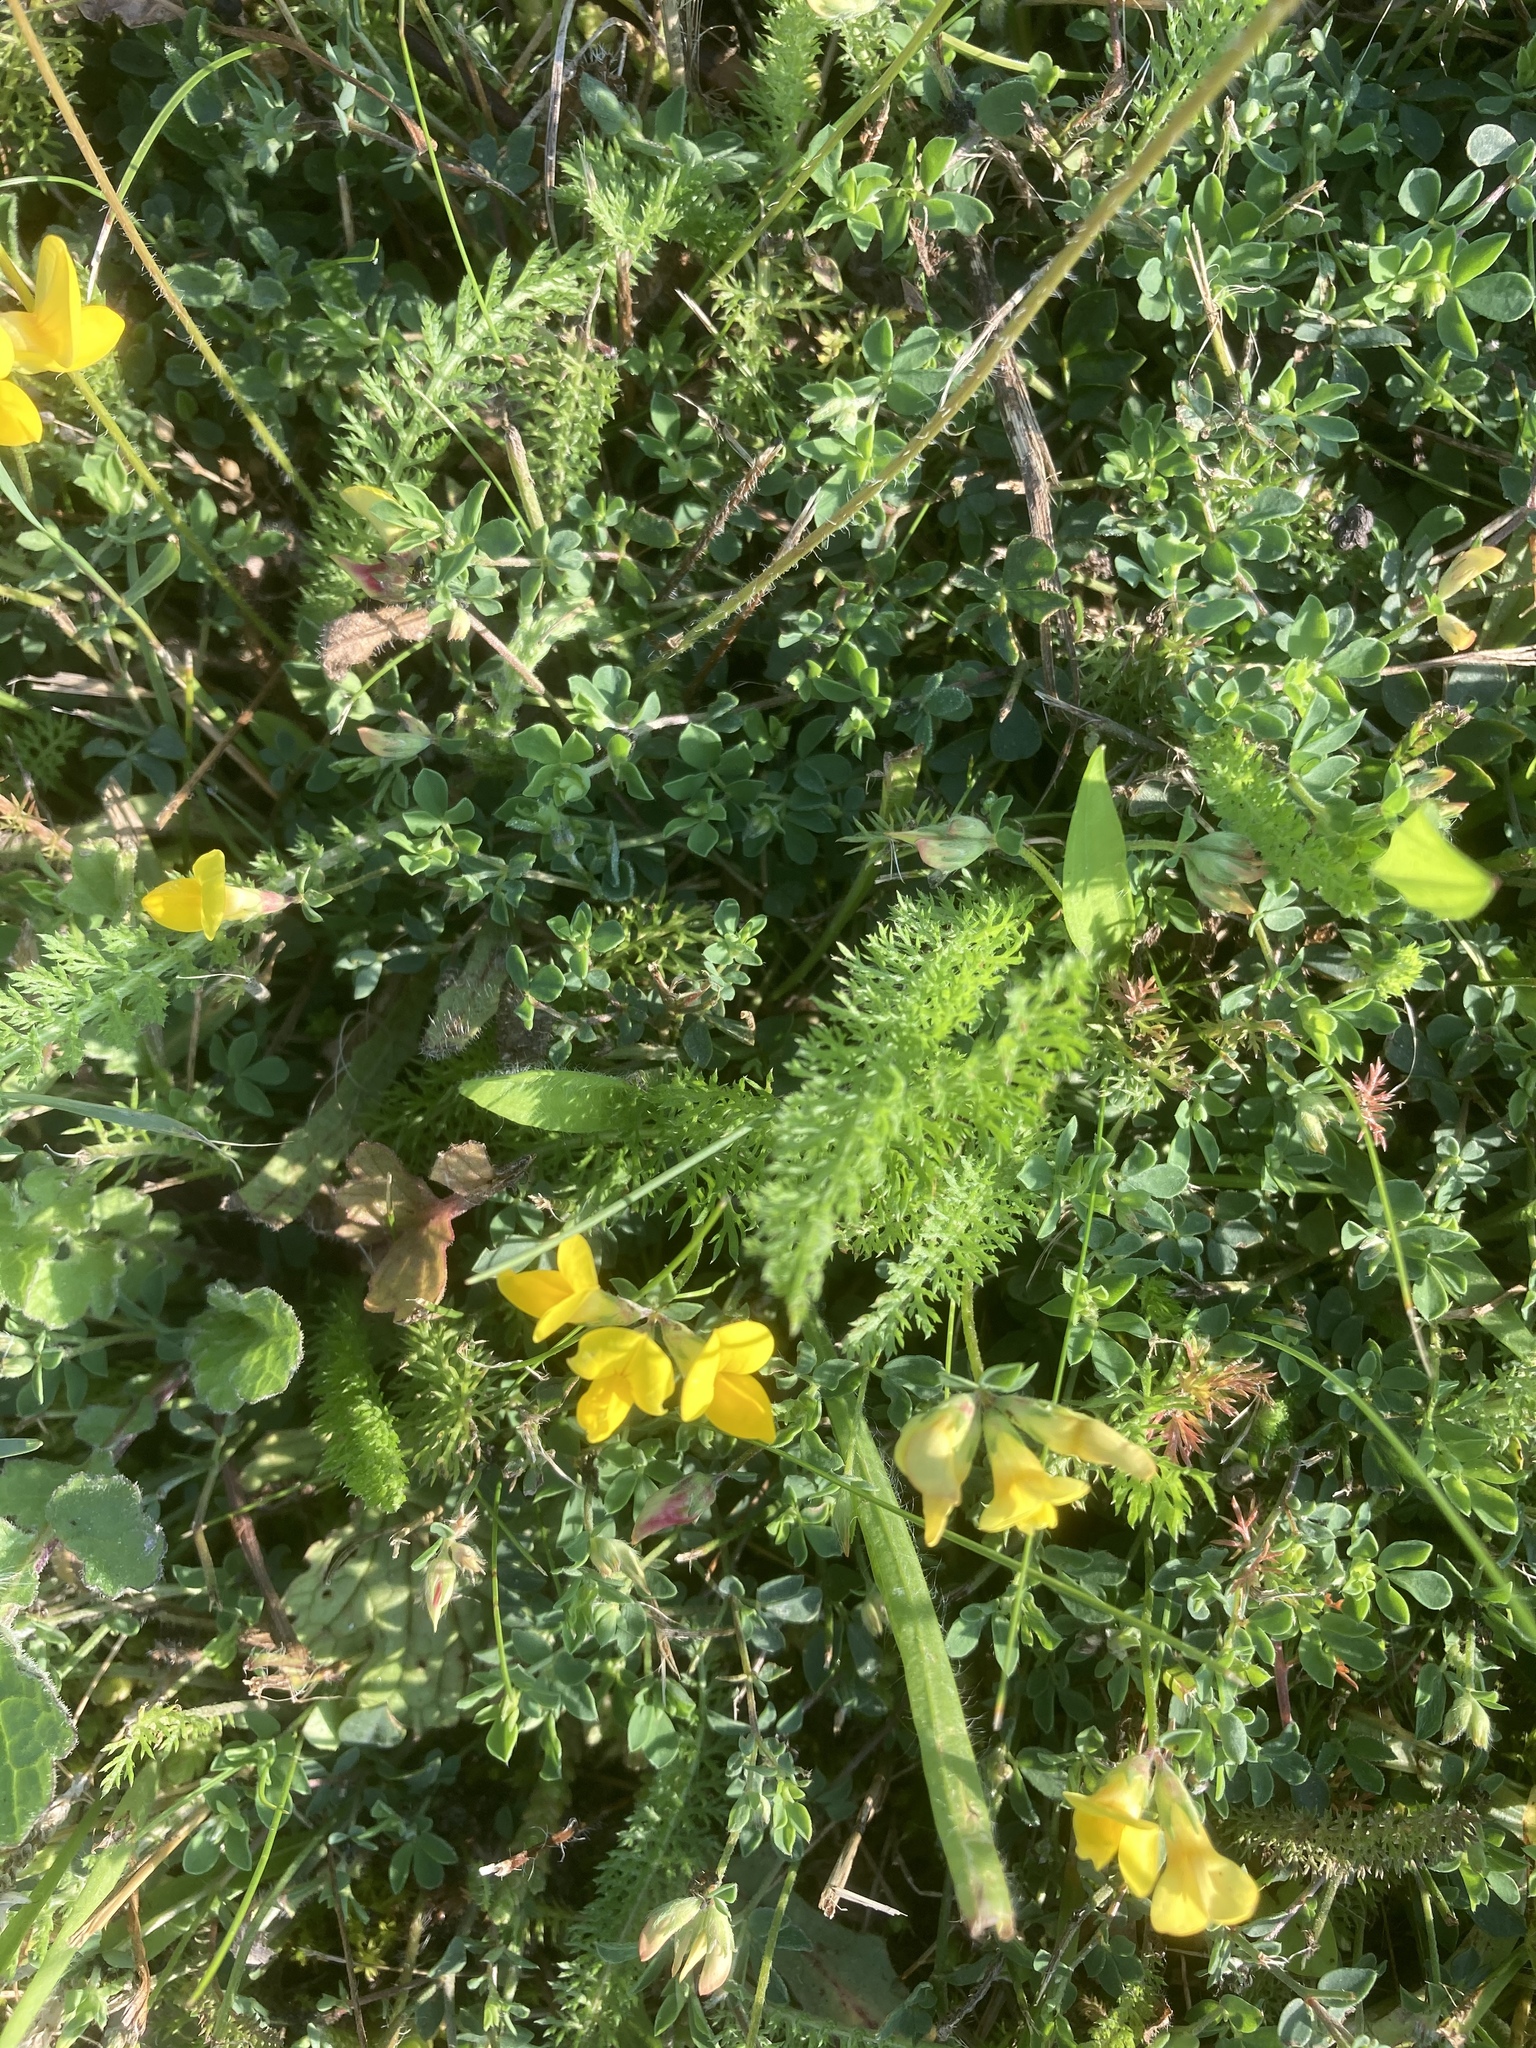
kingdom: Plantae
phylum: Tracheophyta
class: Magnoliopsida
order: Fabales
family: Fabaceae
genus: Lotus
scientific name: Lotus corniculatus
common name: Common bird's-foot-trefoil
